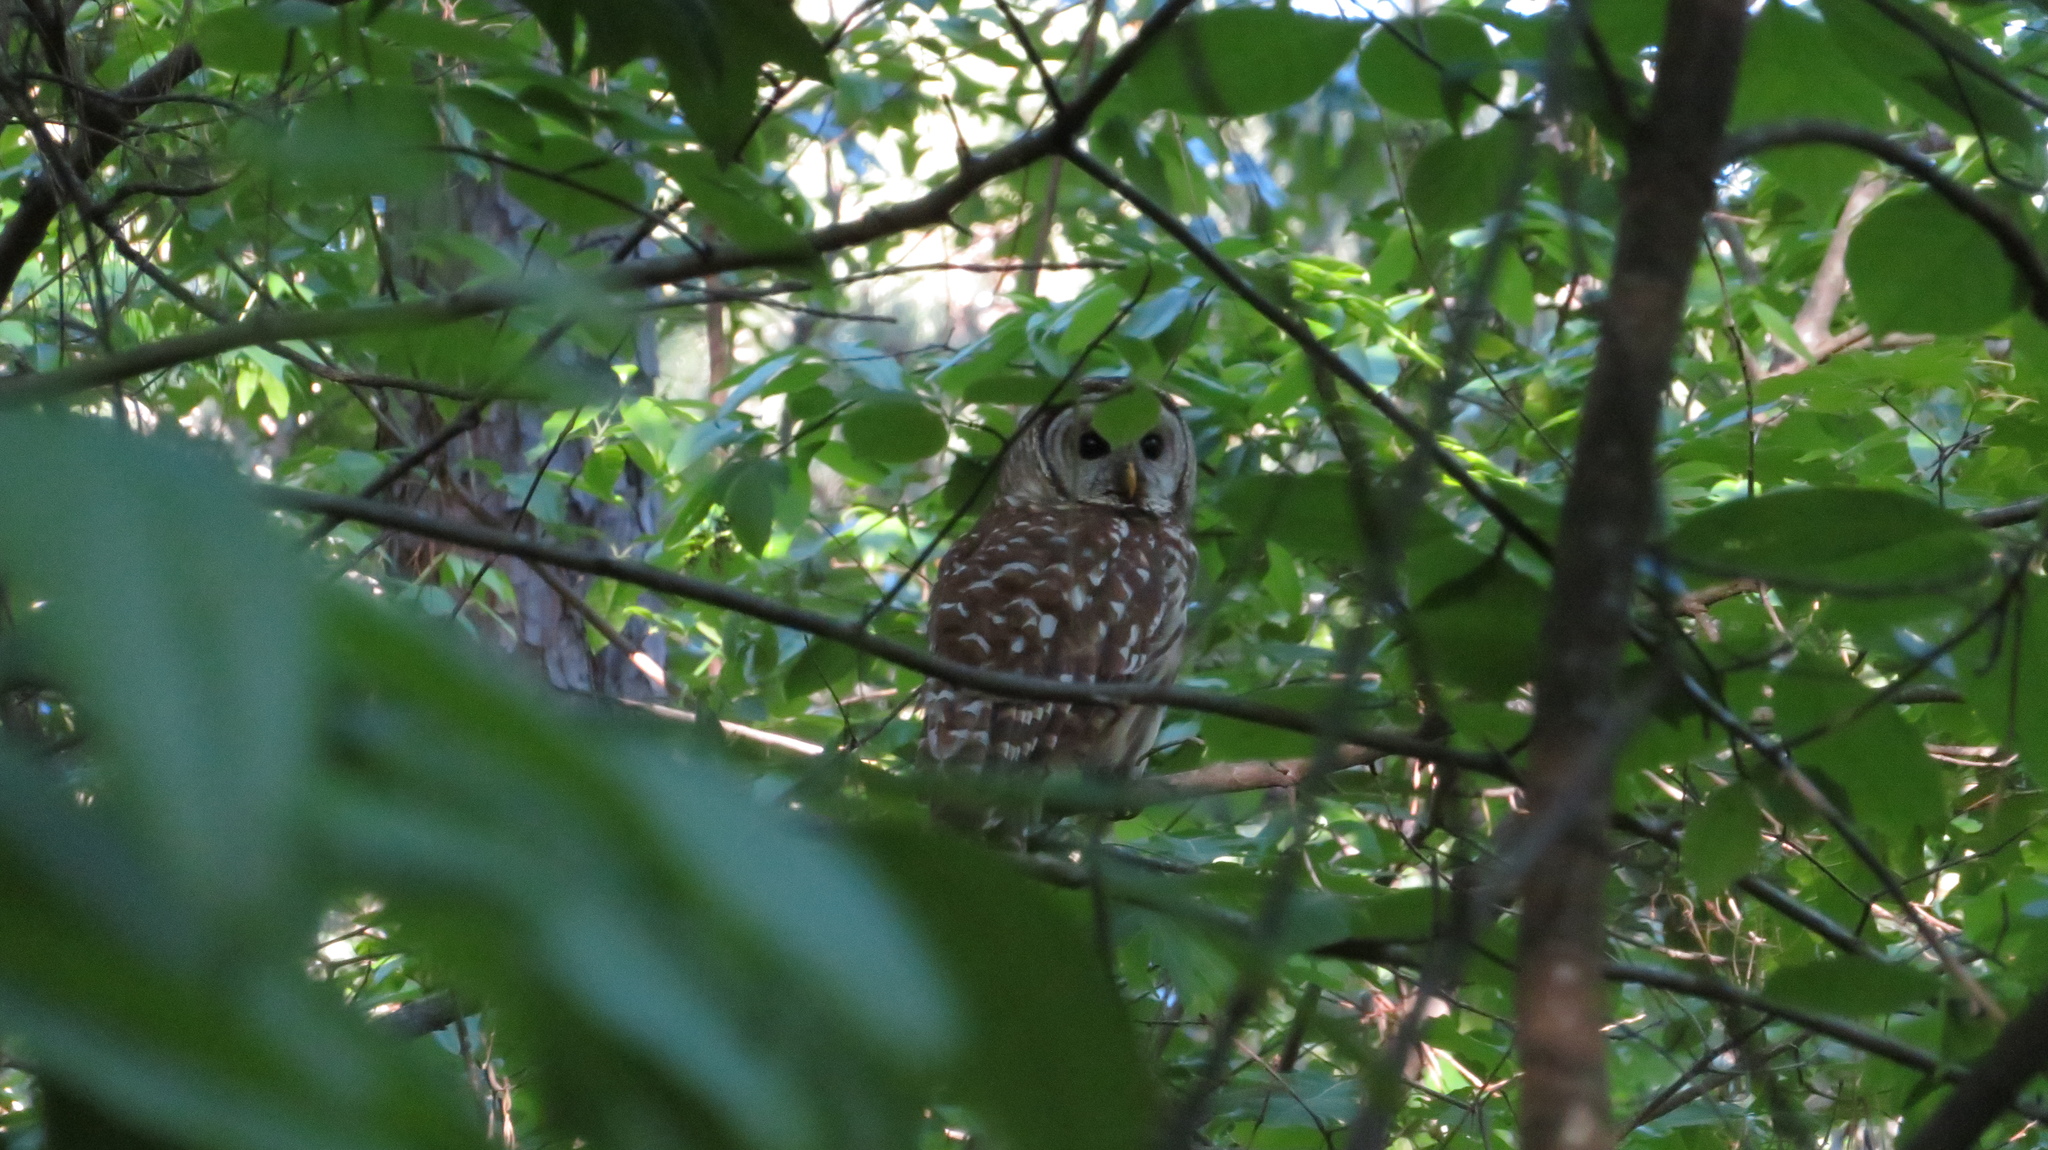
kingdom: Animalia
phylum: Chordata
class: Aves
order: Strigiformes
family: Strigidae
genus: Strix
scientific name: Strix varia
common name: Barred owl
